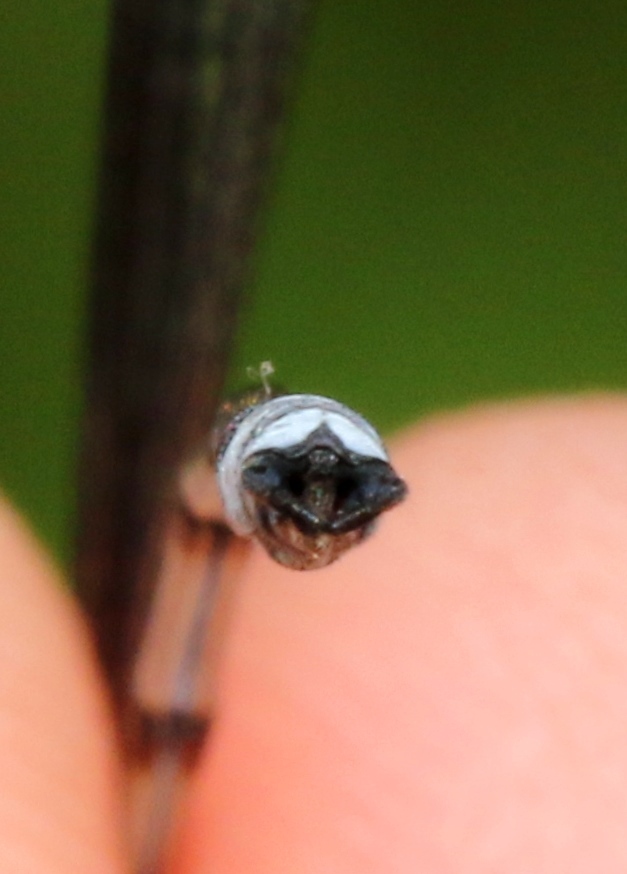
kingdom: Animalia
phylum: Arthropoda
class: Insecta
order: Odonata
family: Lestidae
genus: Lestes
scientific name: Lestes forcipatus
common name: Sweetflag spreadwing
